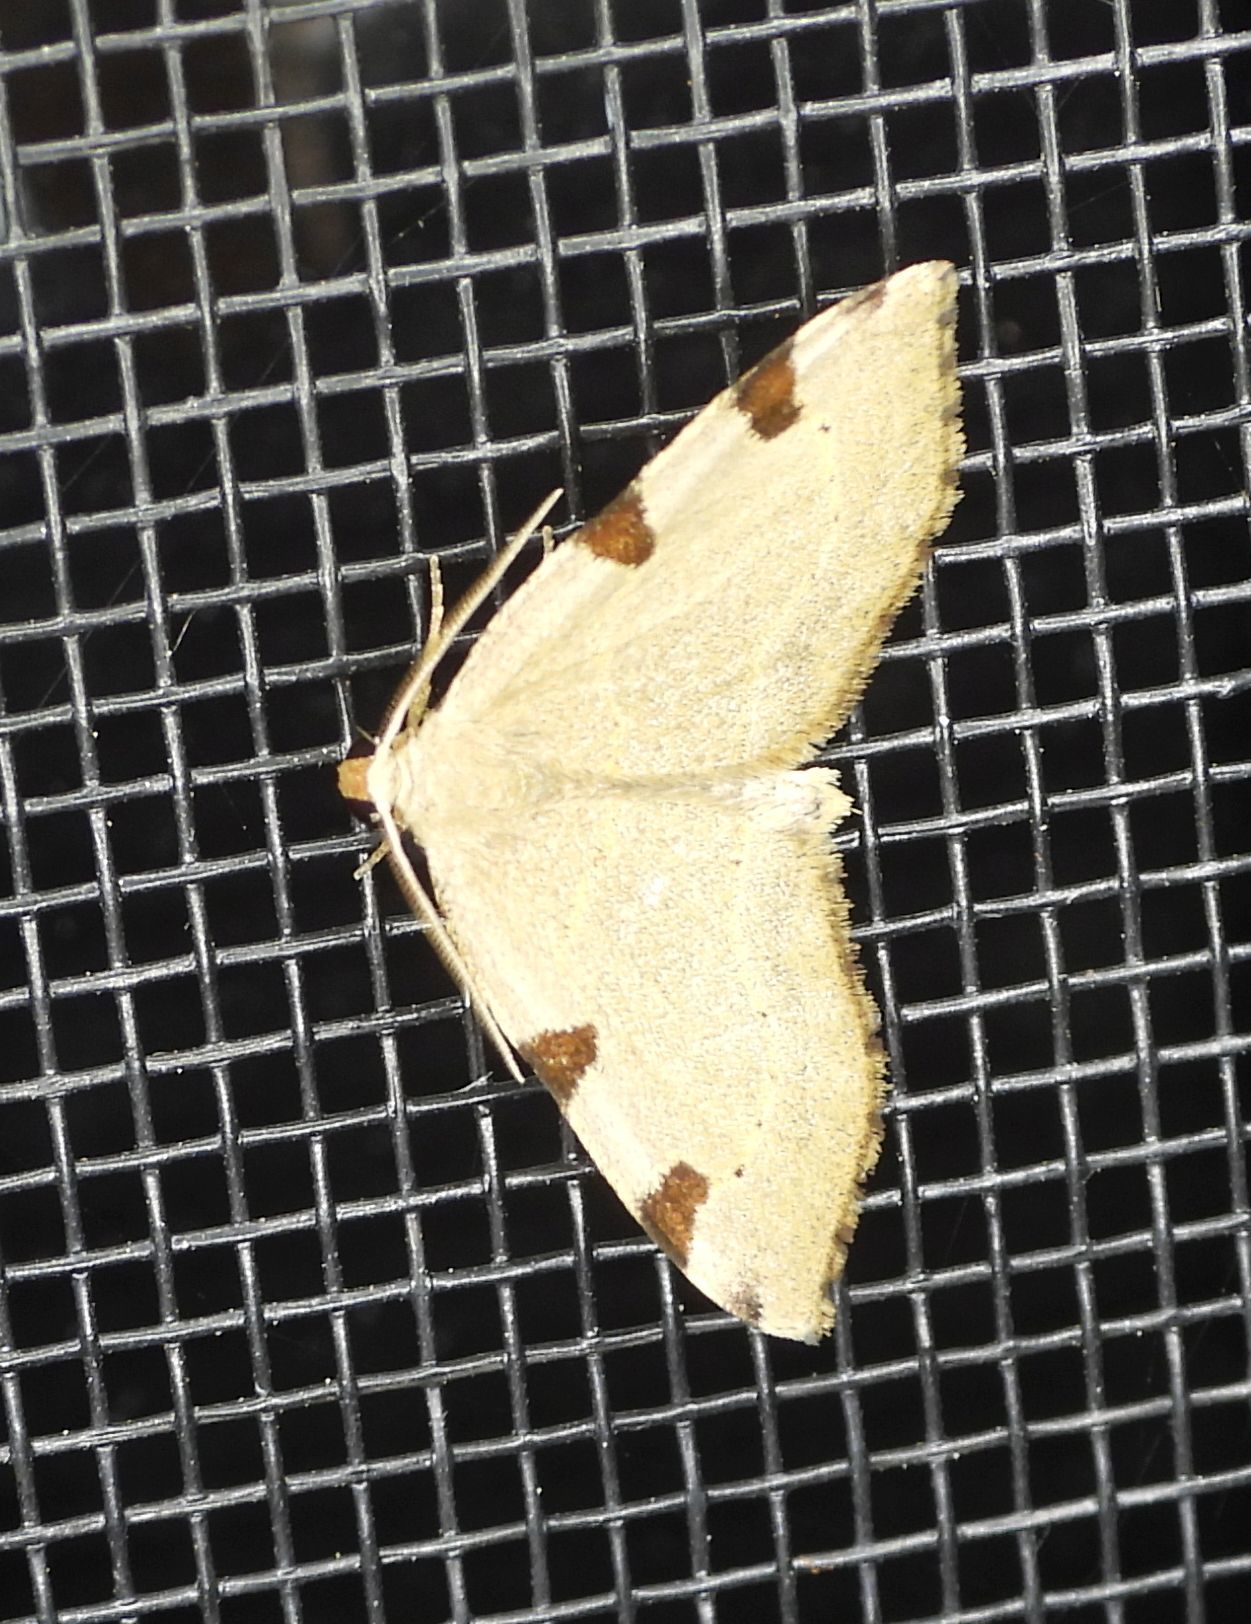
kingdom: Animalia
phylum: Arthropoda
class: Insecta
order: Lepidoptera
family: Geometridae
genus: Heterophleps
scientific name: Heterophleps triguttaria
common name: Three-spotted fillip
